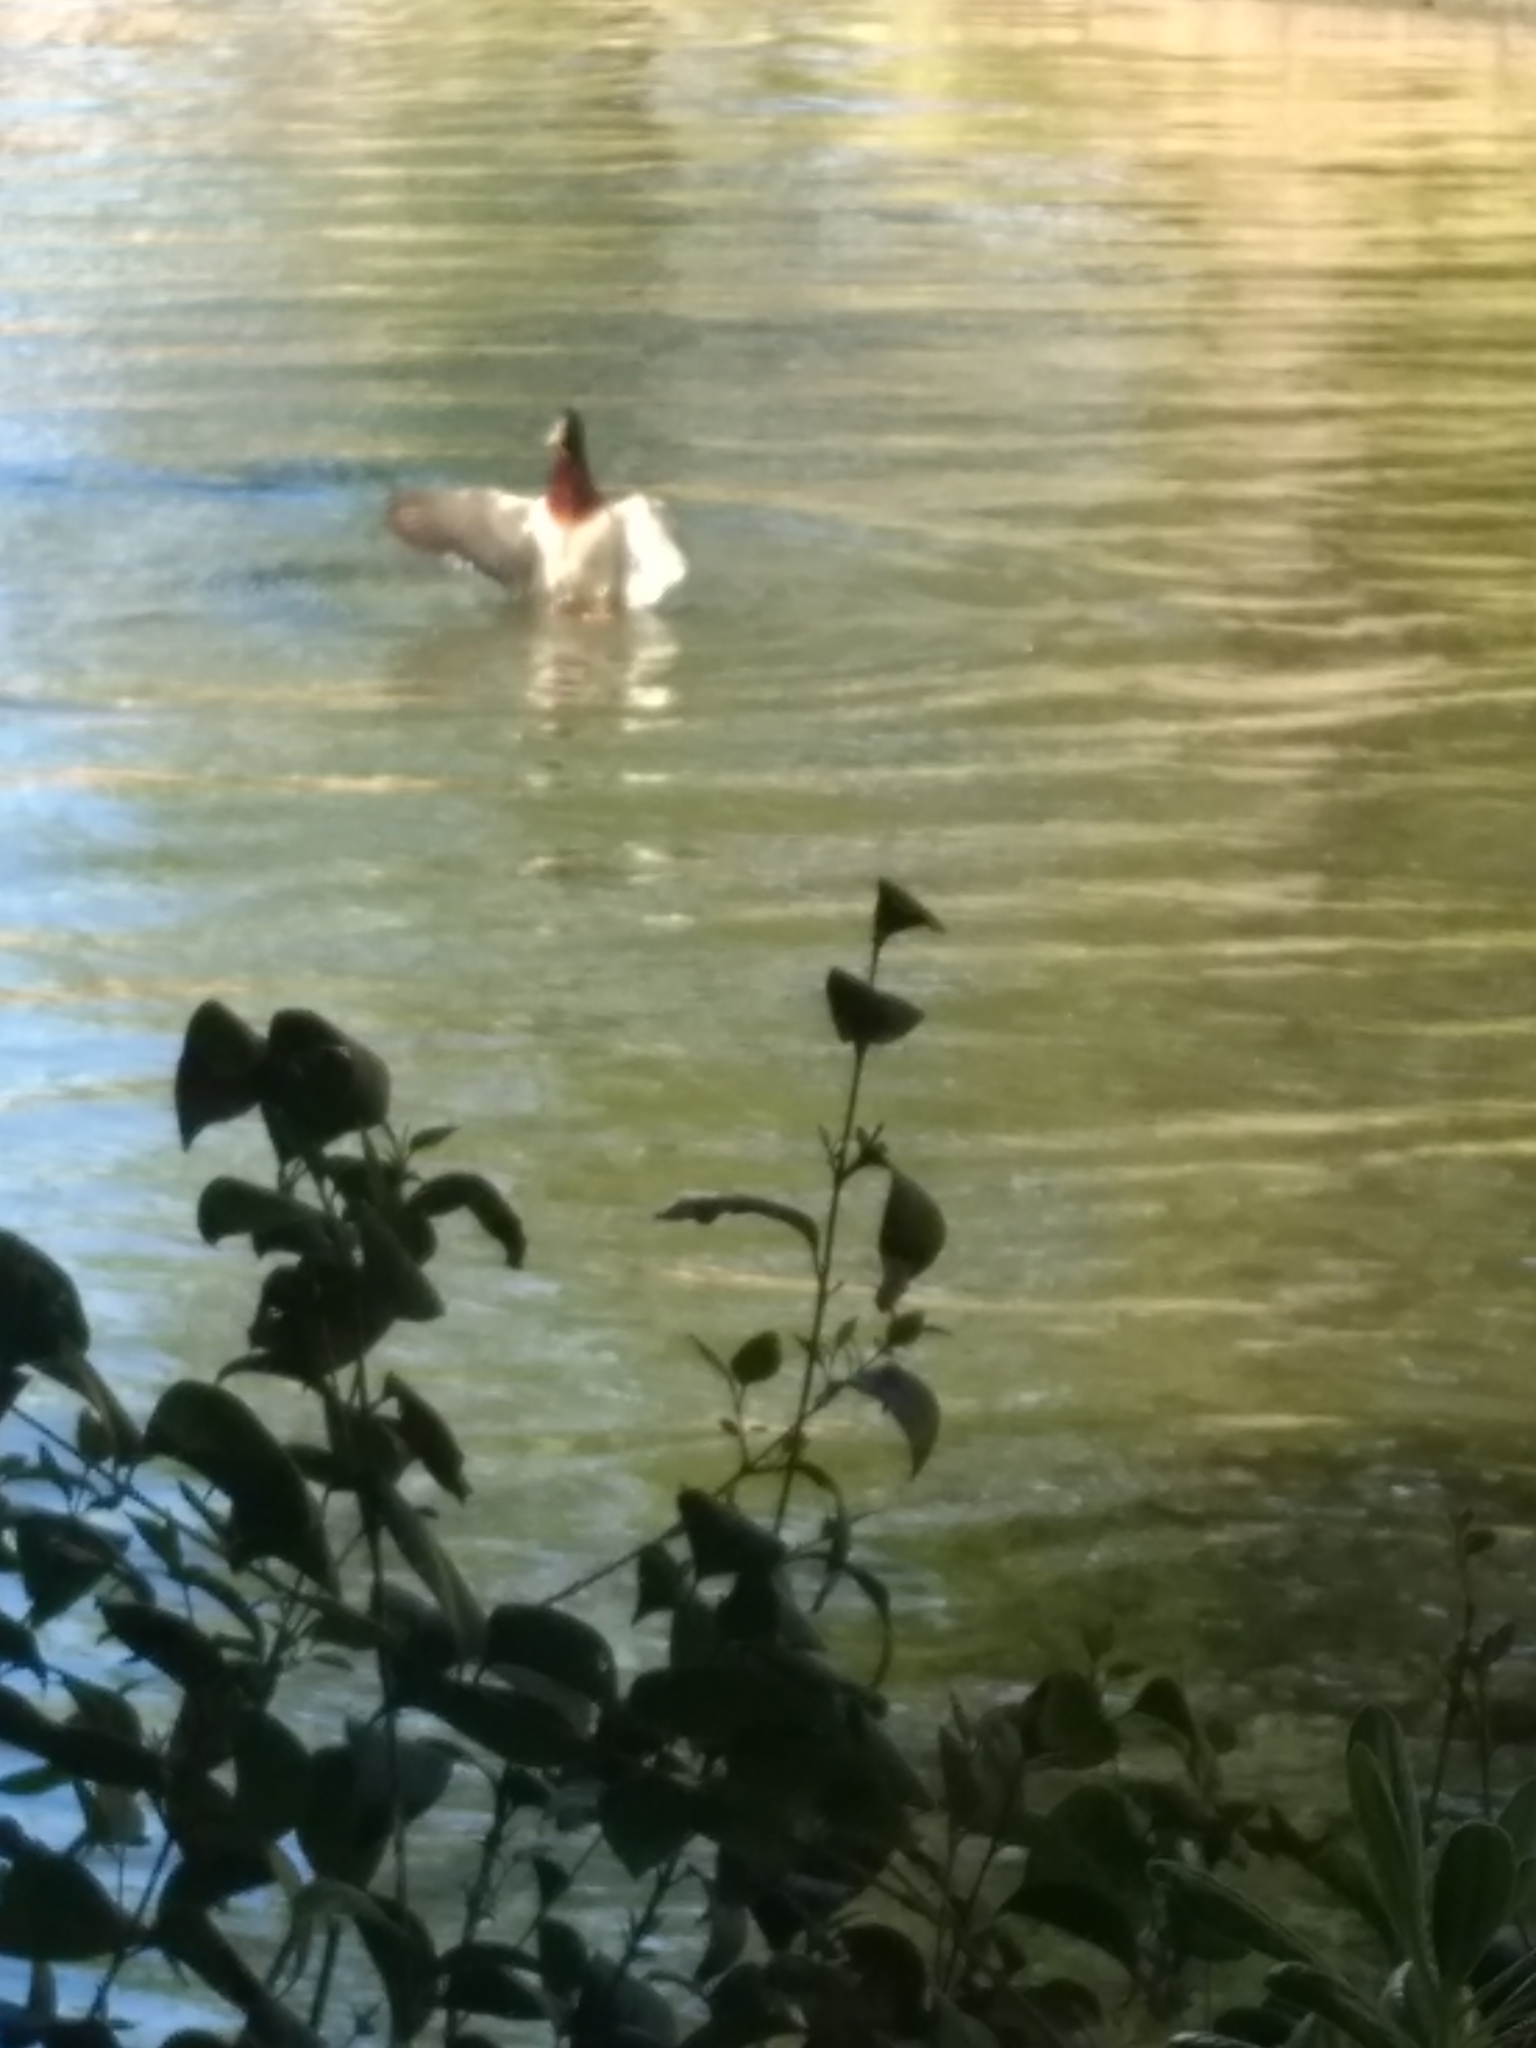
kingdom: Animalia
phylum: Chordata
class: Aves
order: Anseriformes
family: Anatidae
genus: Anas
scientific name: Anas platyrhynchos
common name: Mallard
